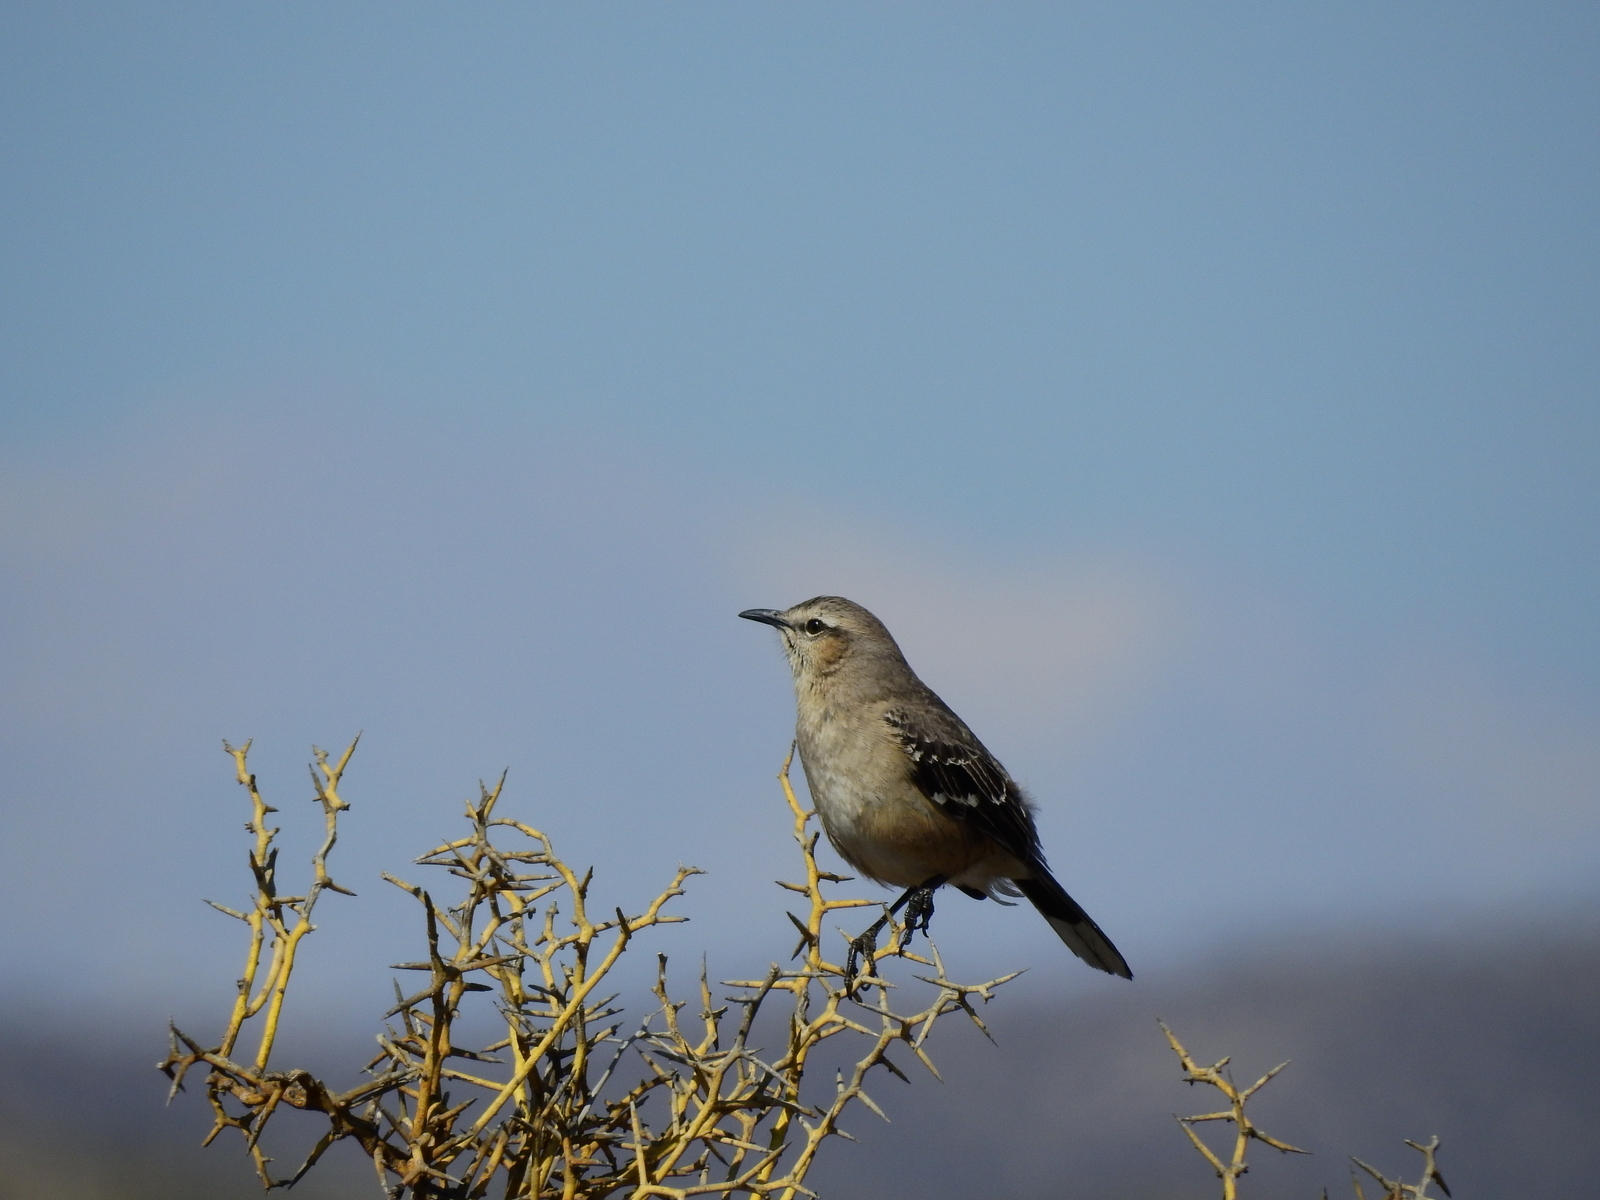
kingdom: Animalia
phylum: Chordata
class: Aves
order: Passeriformes
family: Mimidae
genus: Mimus
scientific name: Mimus patagonicus
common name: Patagonian mockingbird
